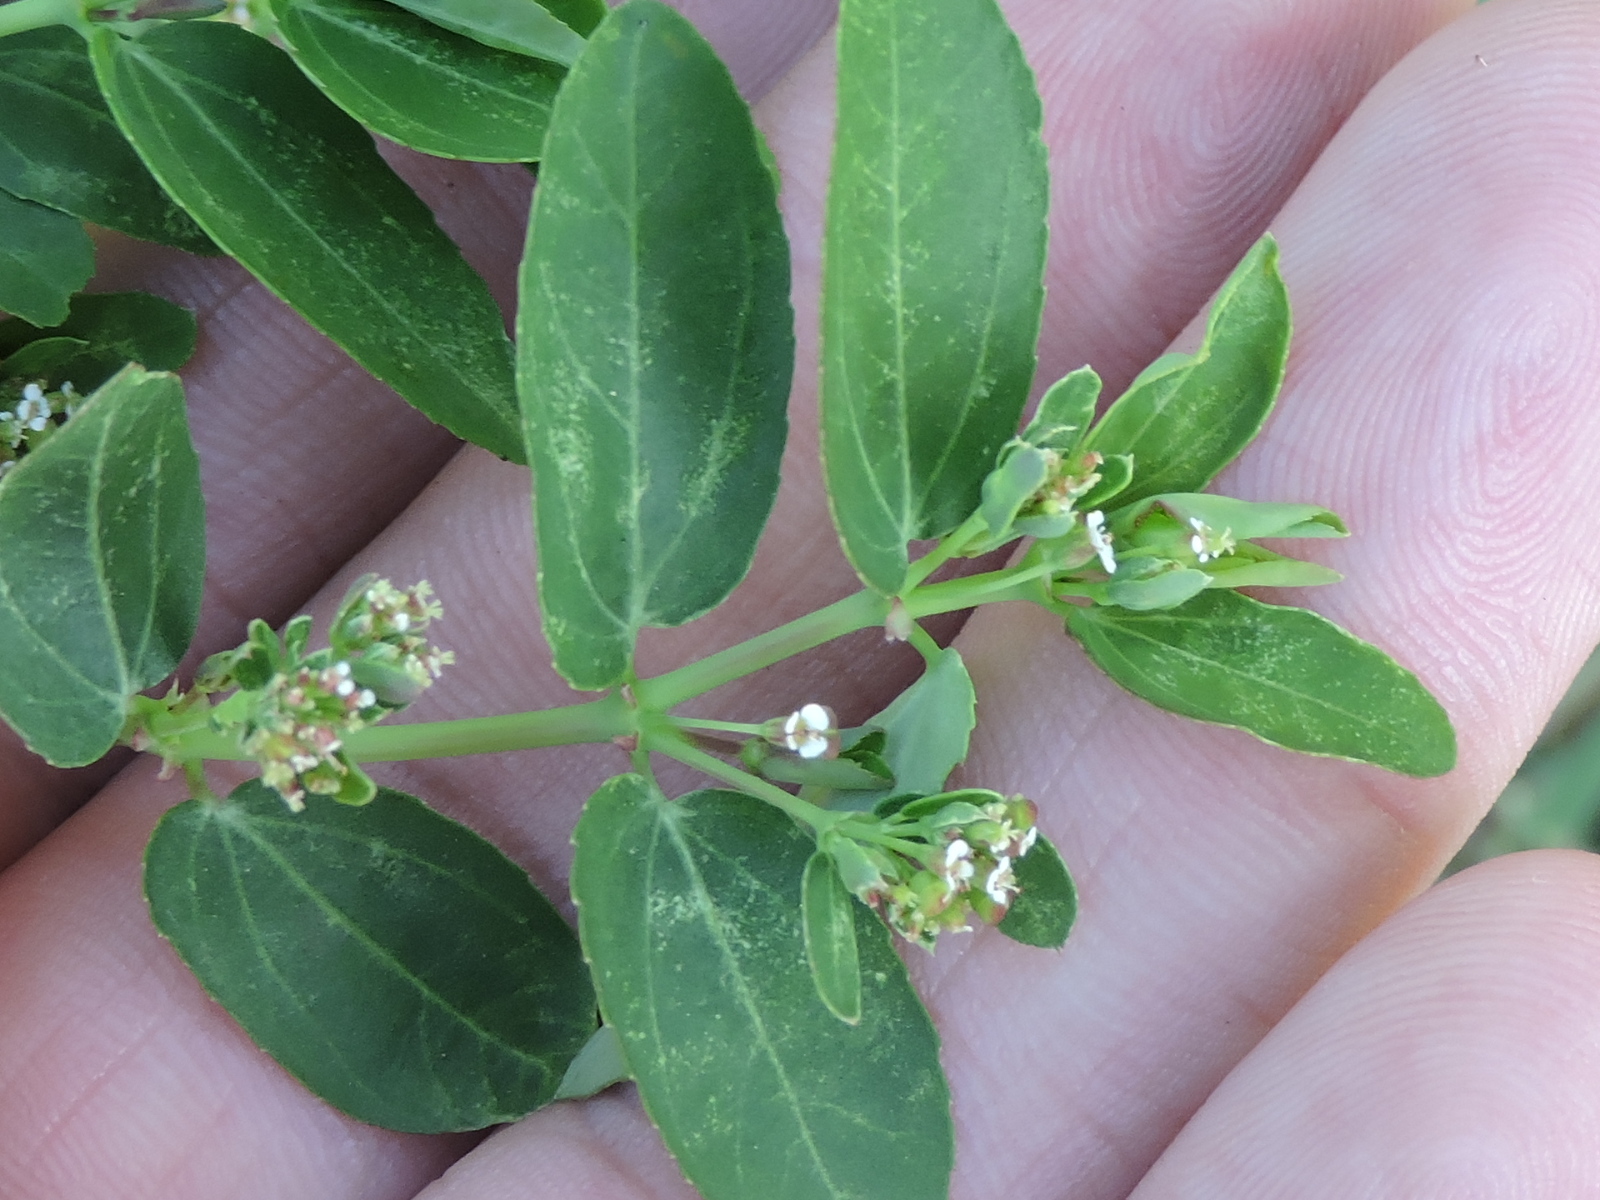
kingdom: Plantae
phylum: Tracheophyta
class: Magnoliopsida
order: Malpighiales
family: Euphorbiaceae
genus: Euphorbia
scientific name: Euphorbia hypericifolia
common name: Graceful sandmat
